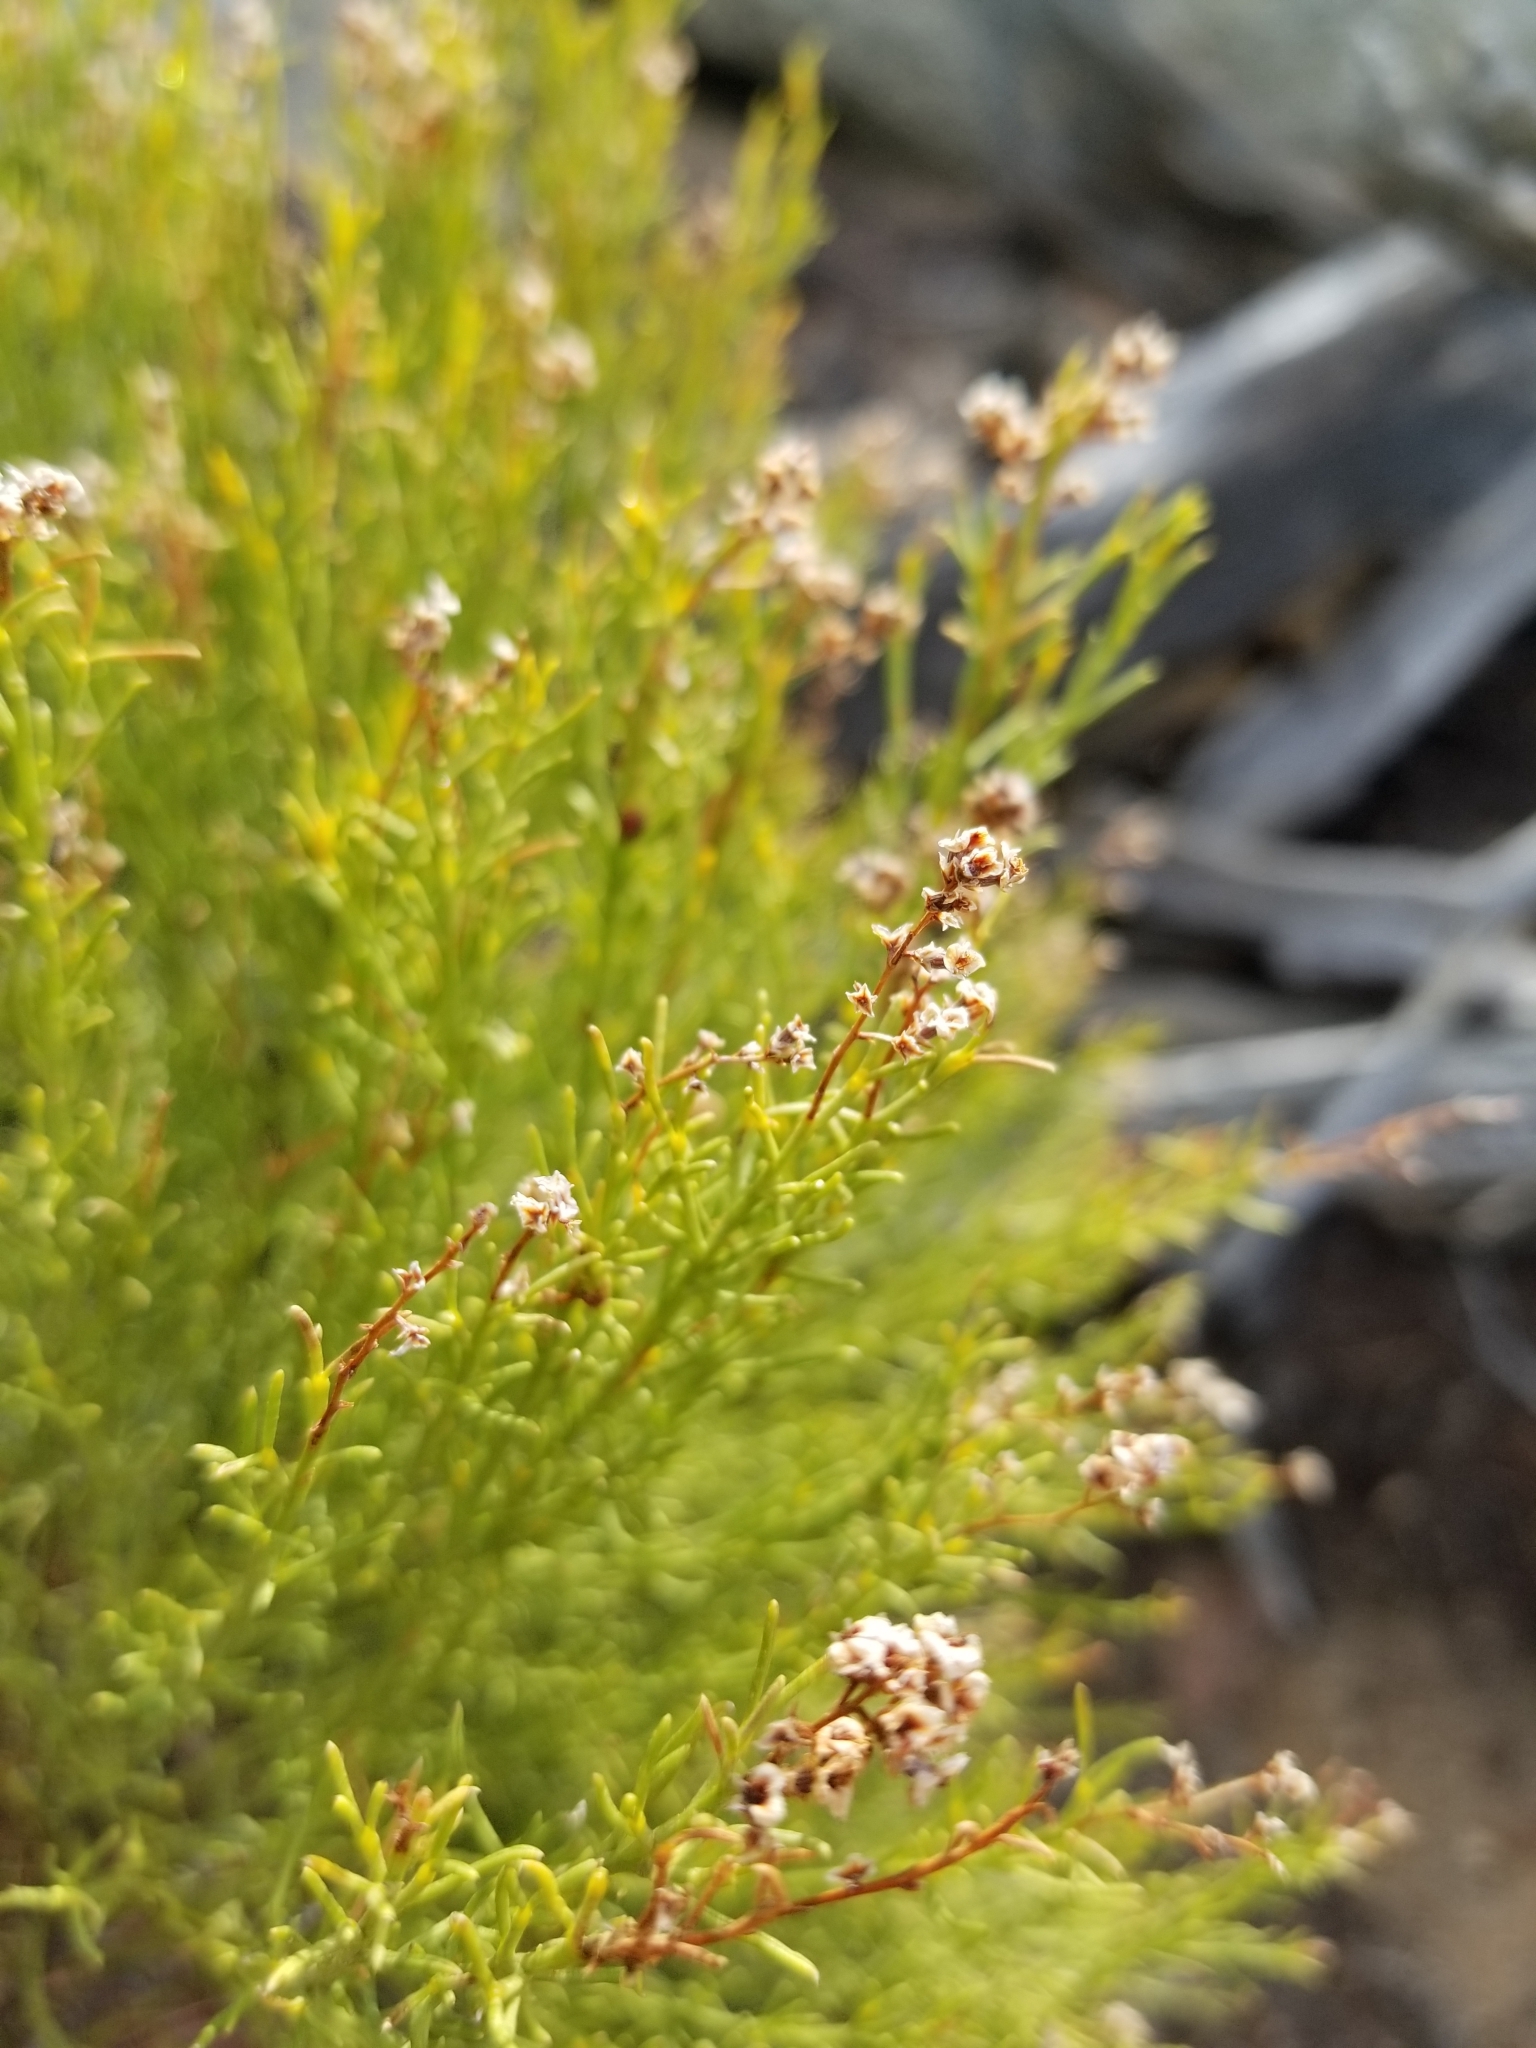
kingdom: Plantae
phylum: Tracheophyta
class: Magnoliopsida
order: Rosales
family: Rosaceae
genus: Adenostoma
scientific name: Adenostoma sparsifolium
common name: Red shank
